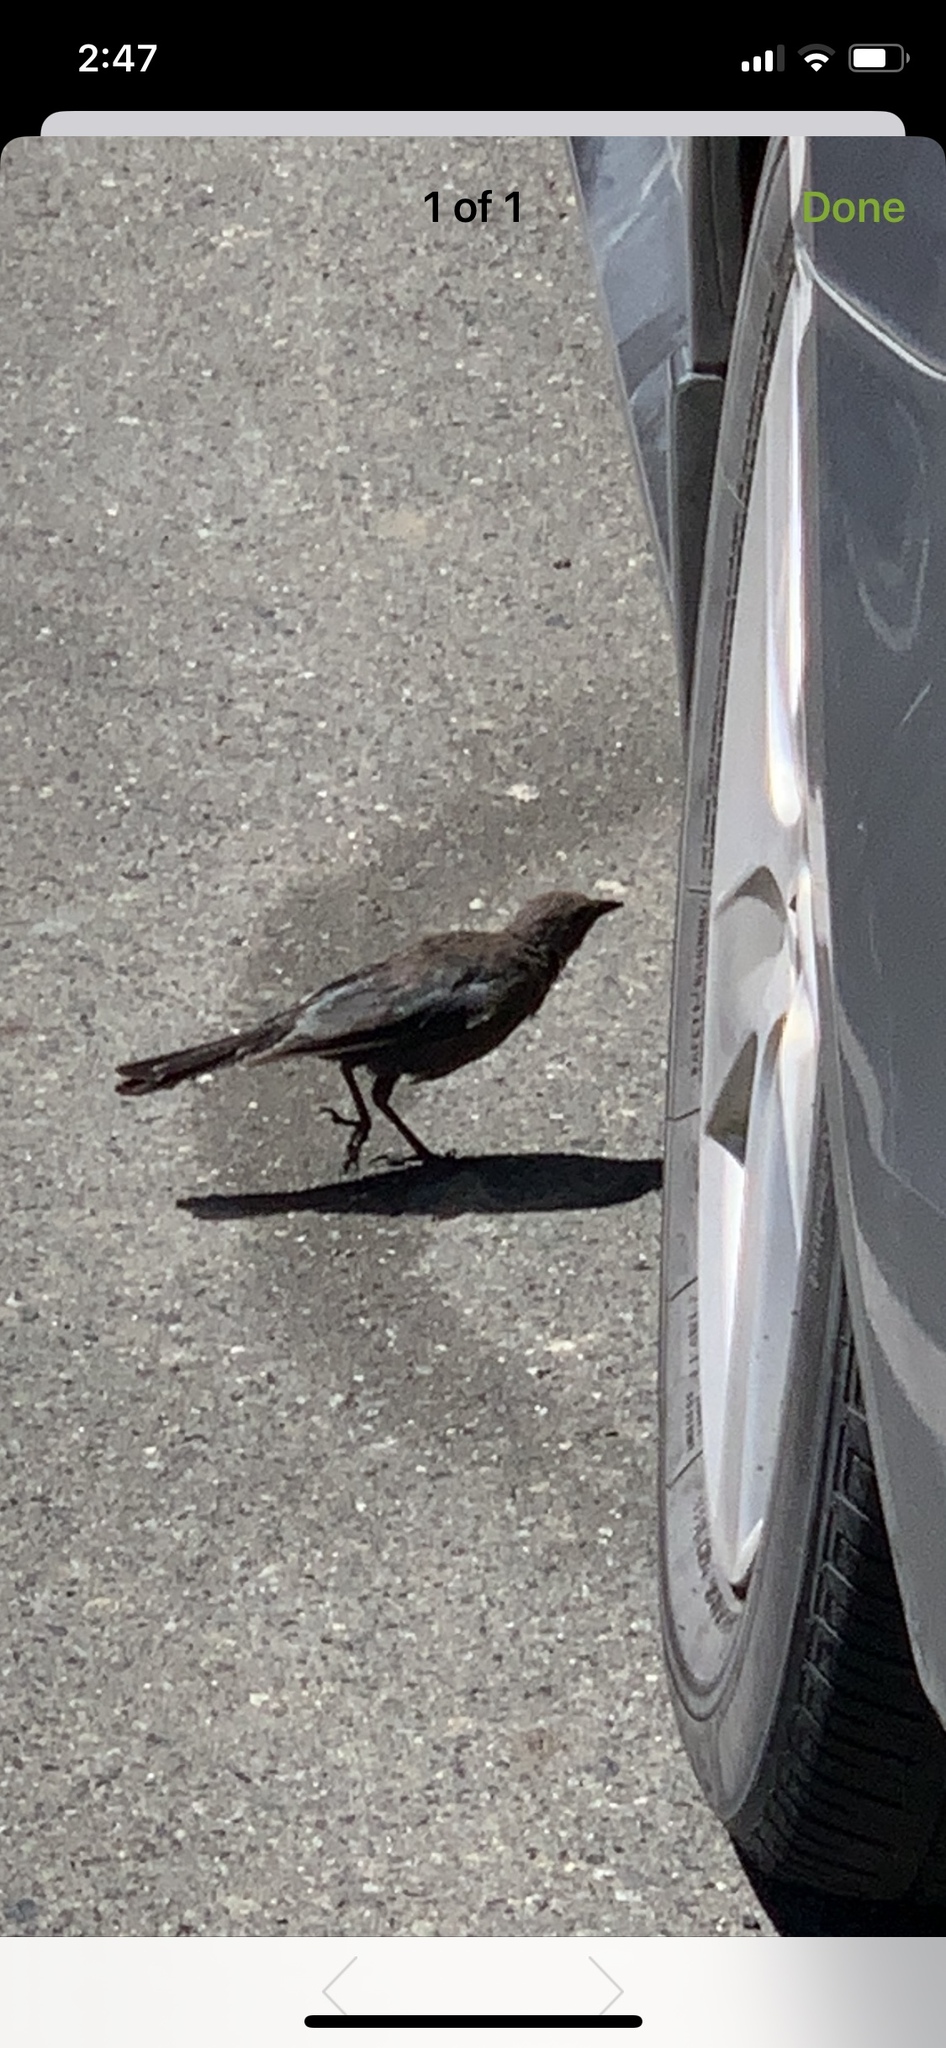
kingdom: Animalia
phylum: Chordata
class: Aves
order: Passeriformes
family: Icteridae
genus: Euphagus
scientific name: Euphagus cyanocephalus
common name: Brewer's blackbird
